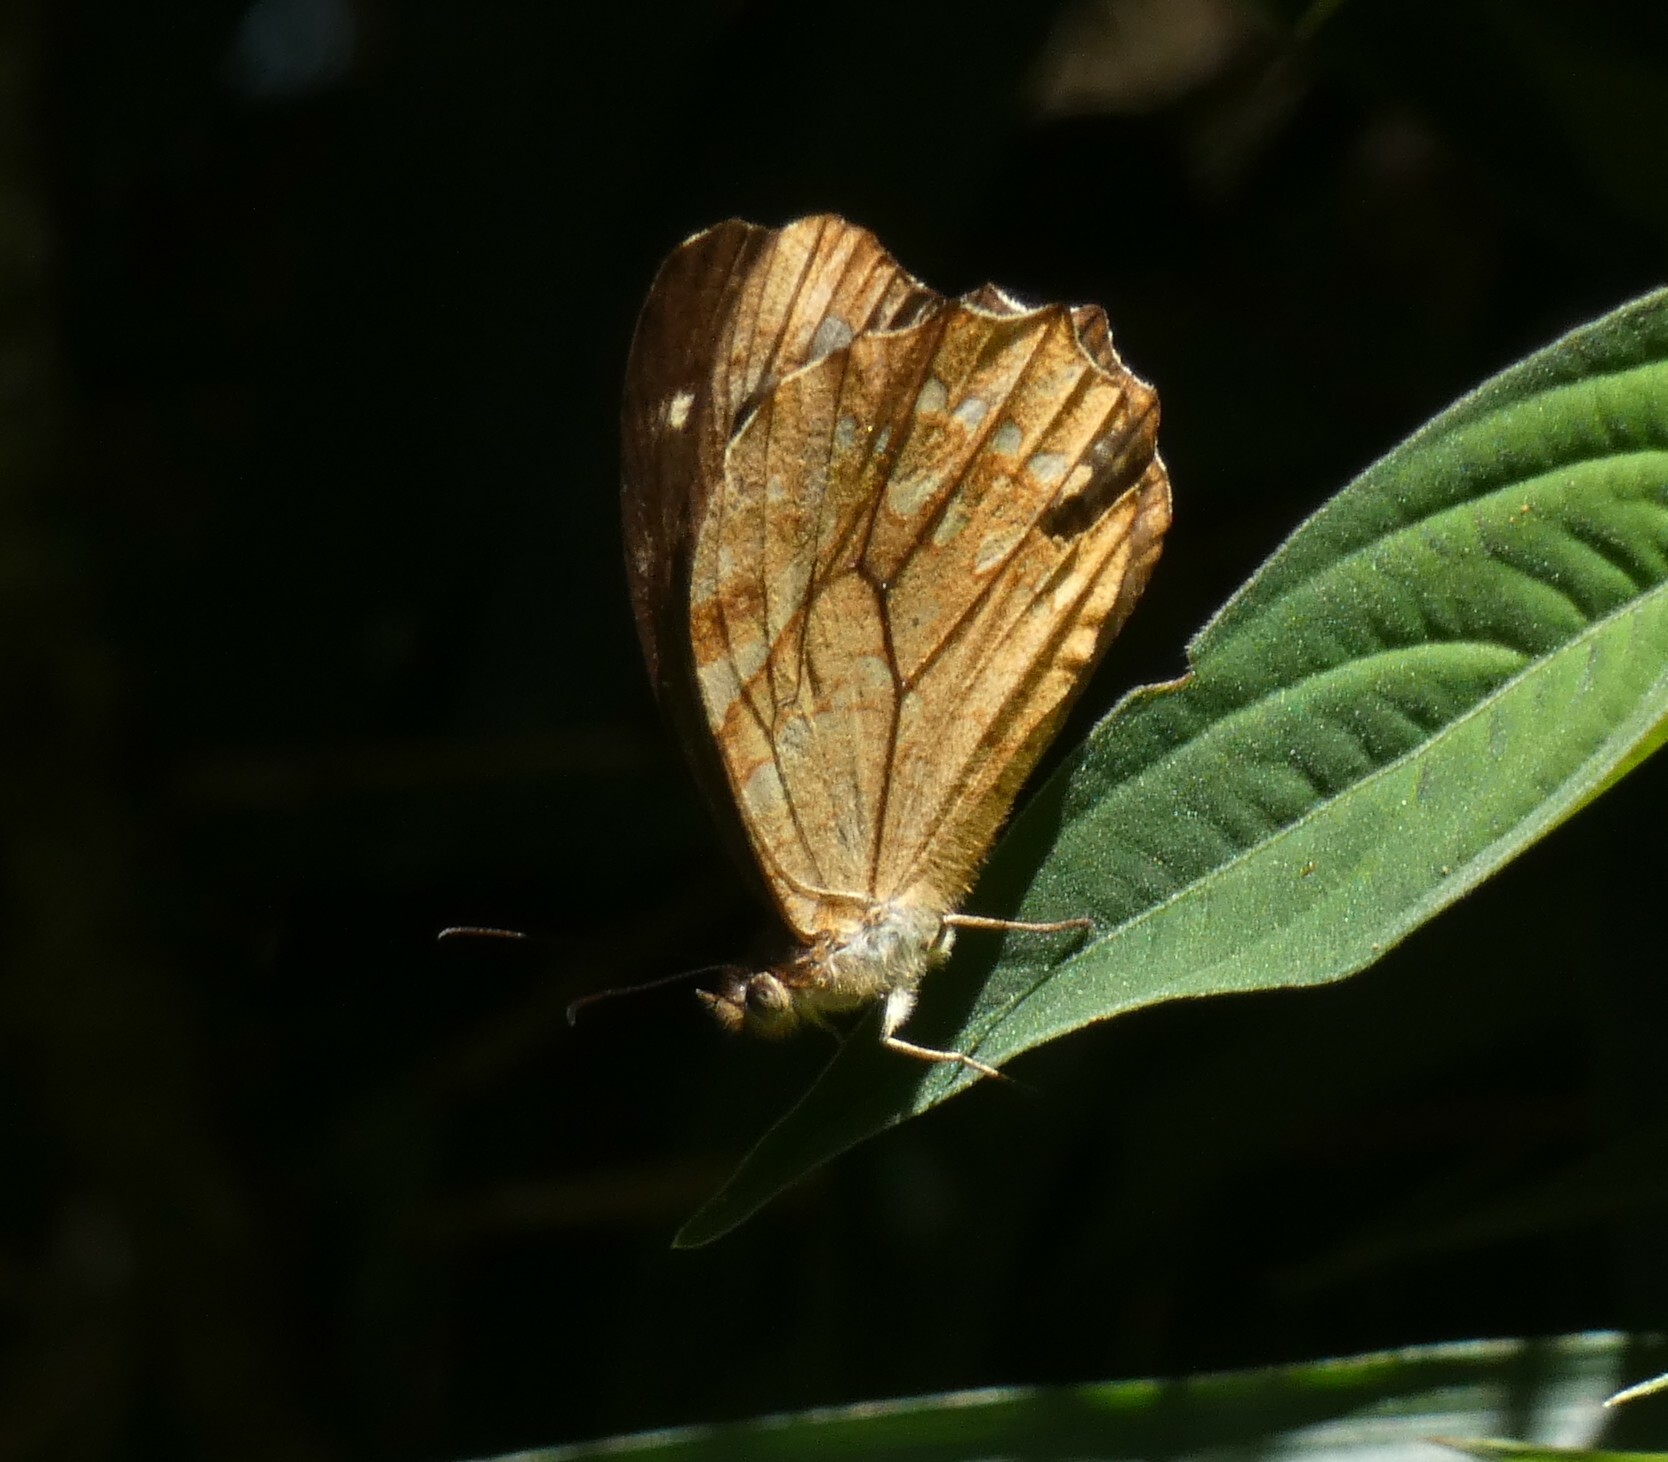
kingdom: Animalia
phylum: Arthropoda
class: Insecta
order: Lepidoptera
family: Nymphalidae
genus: Foetterleia
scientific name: Foetterleia schreineri
